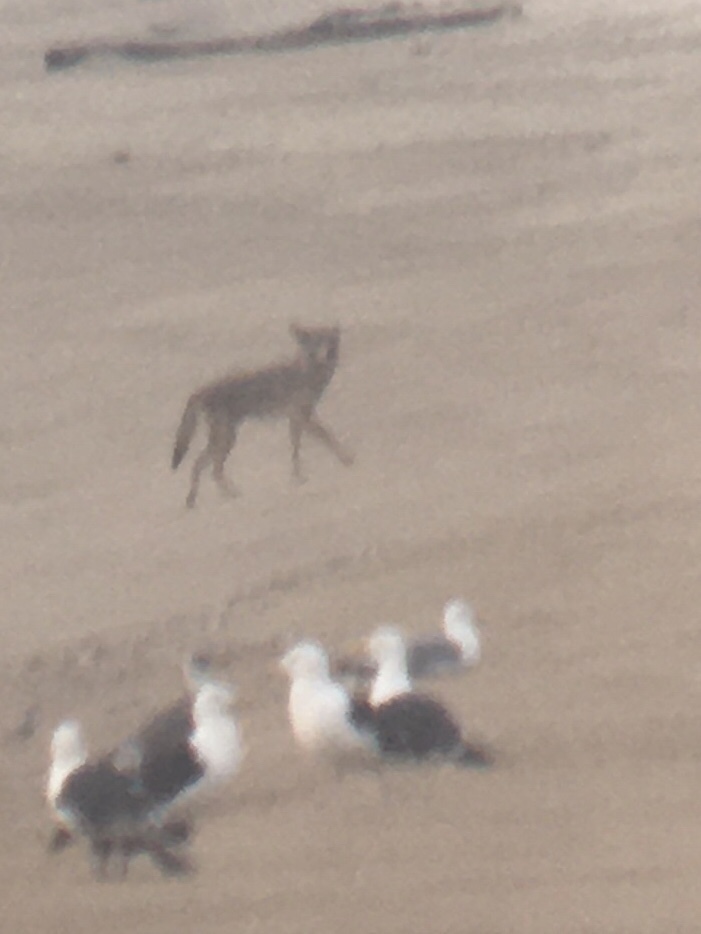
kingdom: Animalia
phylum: Chordata
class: Mammalia
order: Carnivora
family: Canidae
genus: Canis
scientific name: Canis latrans
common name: Coyote
